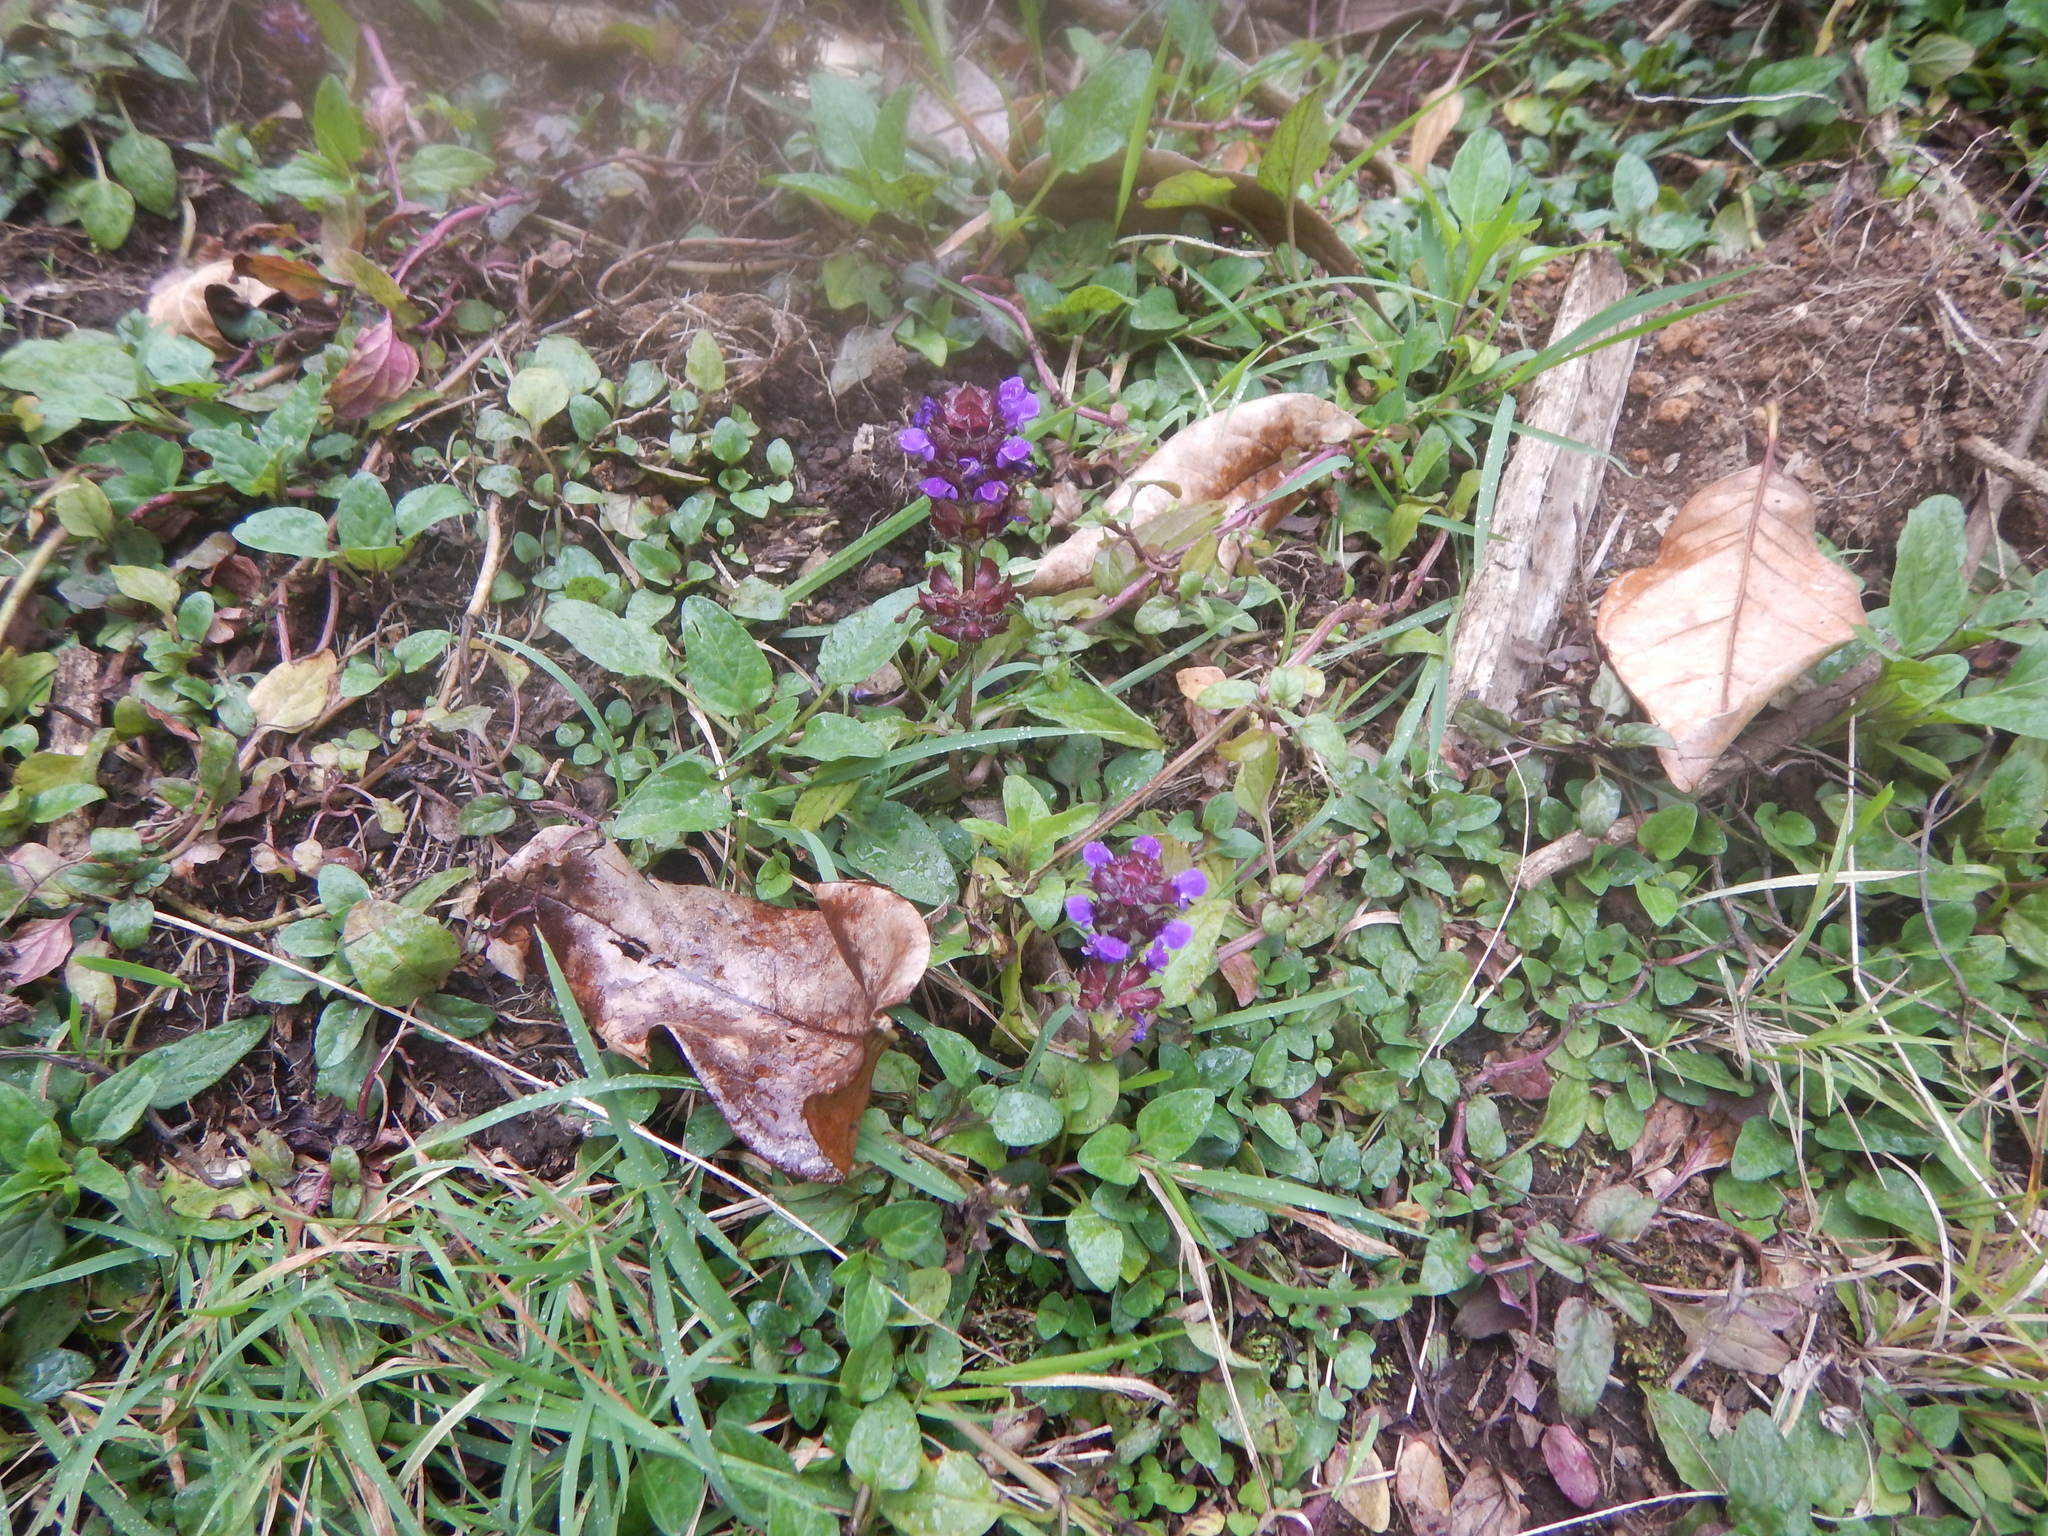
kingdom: Plantae
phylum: Tracheophyta
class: Magnoliopsida
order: Lamiales
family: Lamiaceae
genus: Prunella
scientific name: Prunella vulgaris
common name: Heal-all
